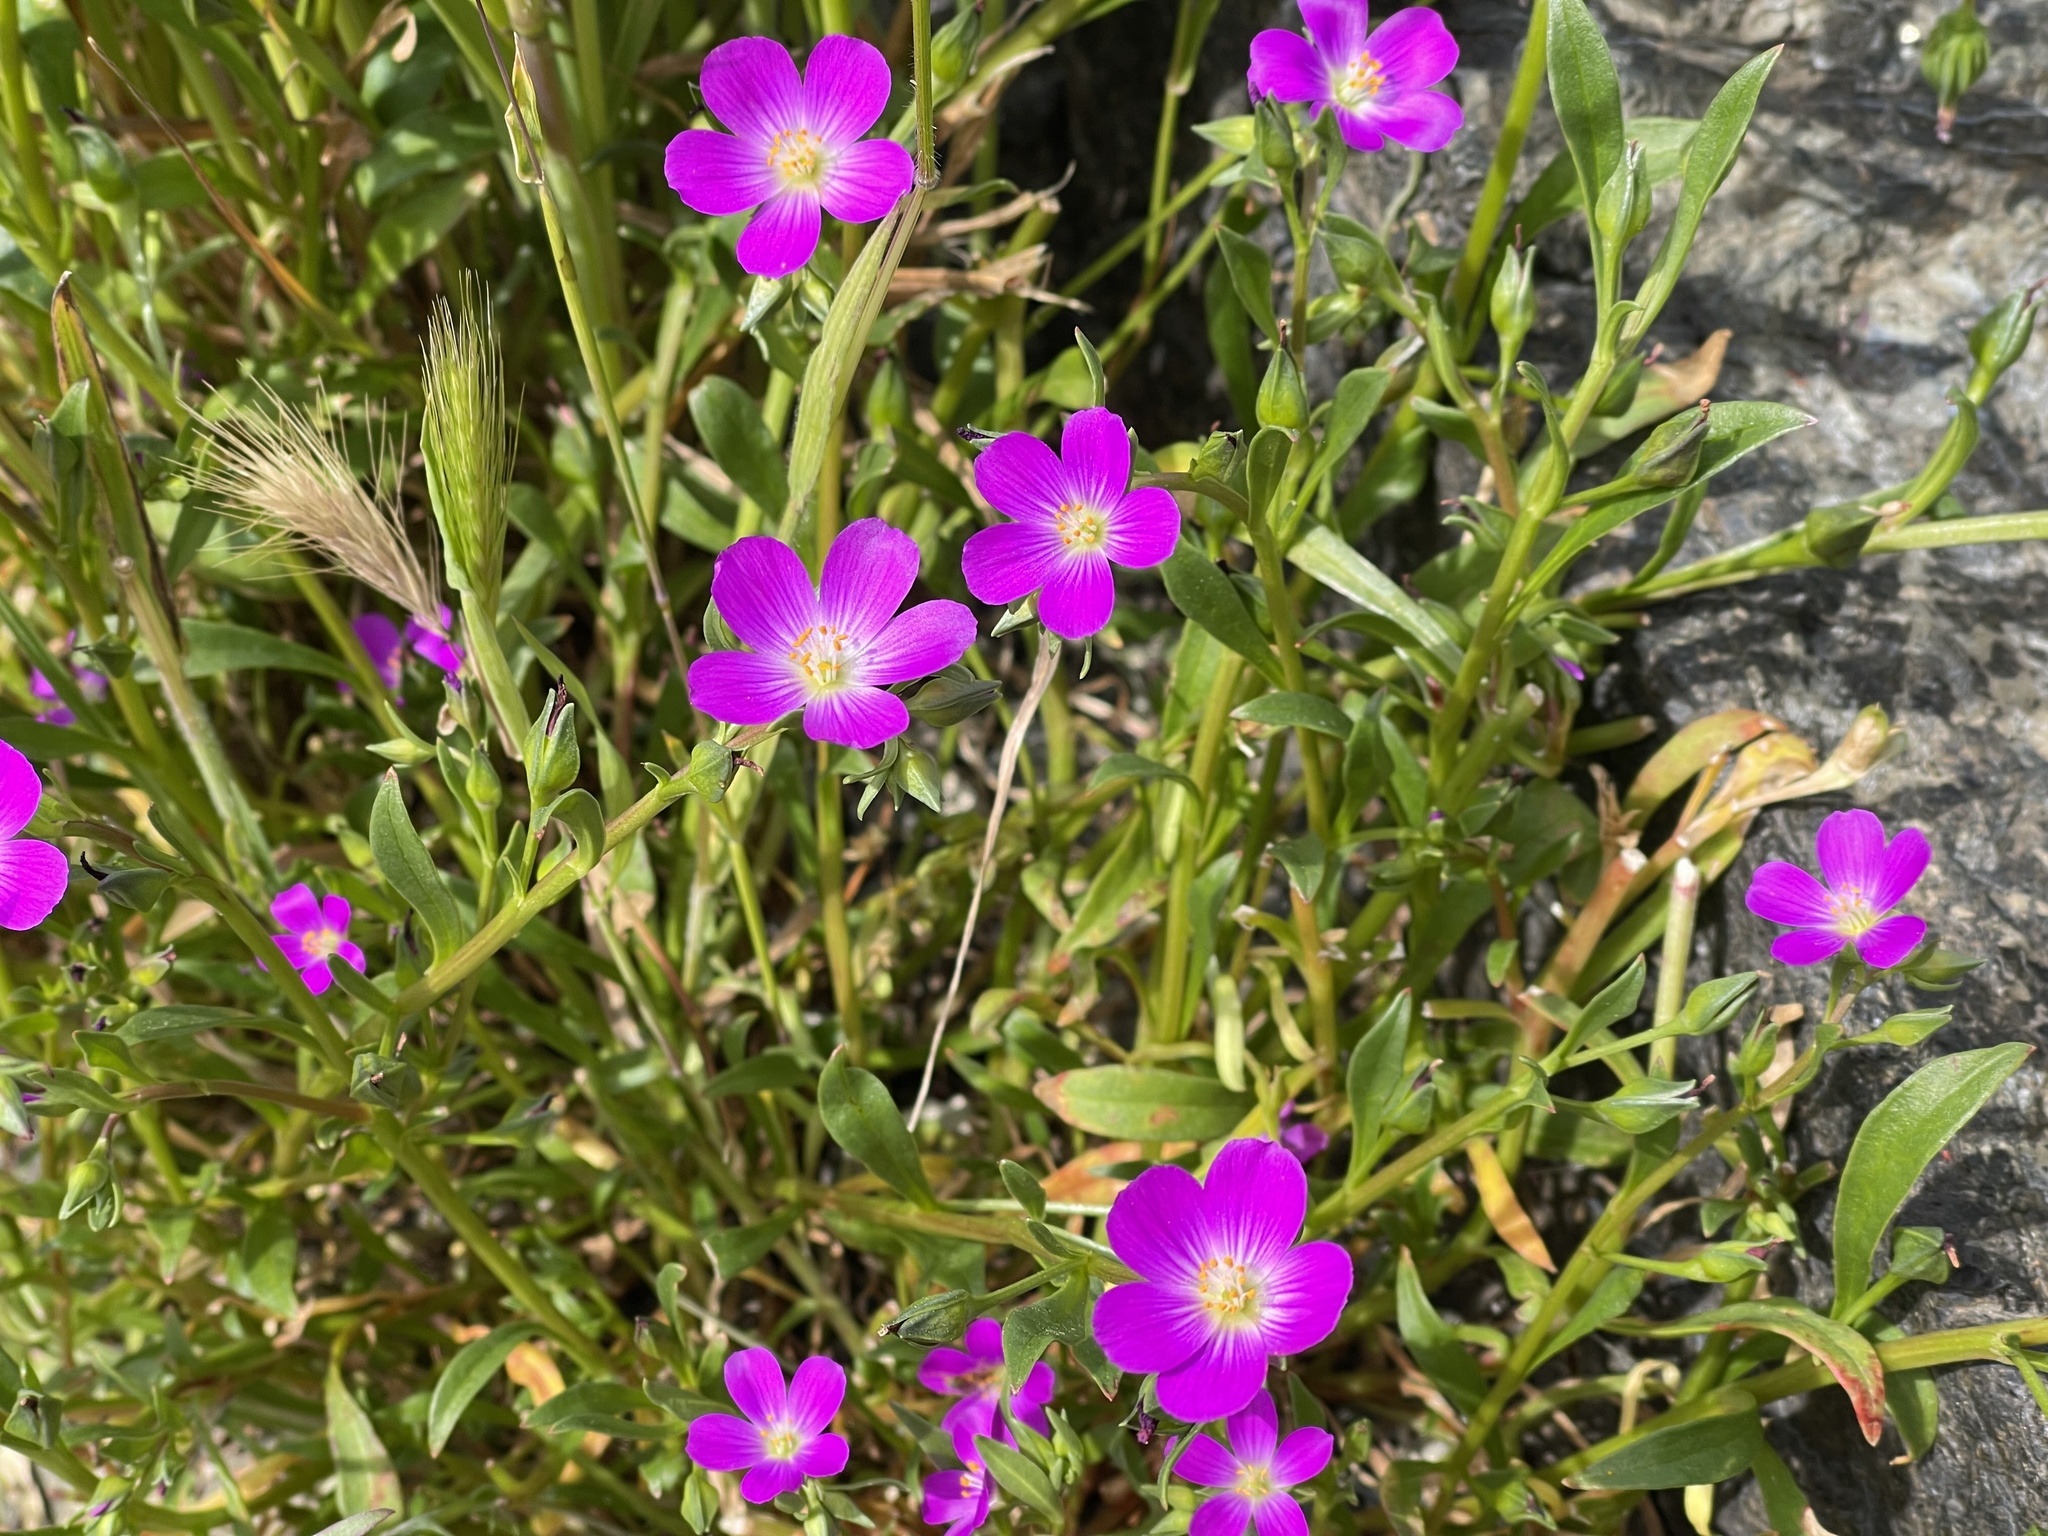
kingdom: Plantae
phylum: Tracheophyta
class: Magnoliopsida
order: Caryophyllales
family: Montiaceae
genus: Calandrinia
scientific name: Calandrinia menziesii
